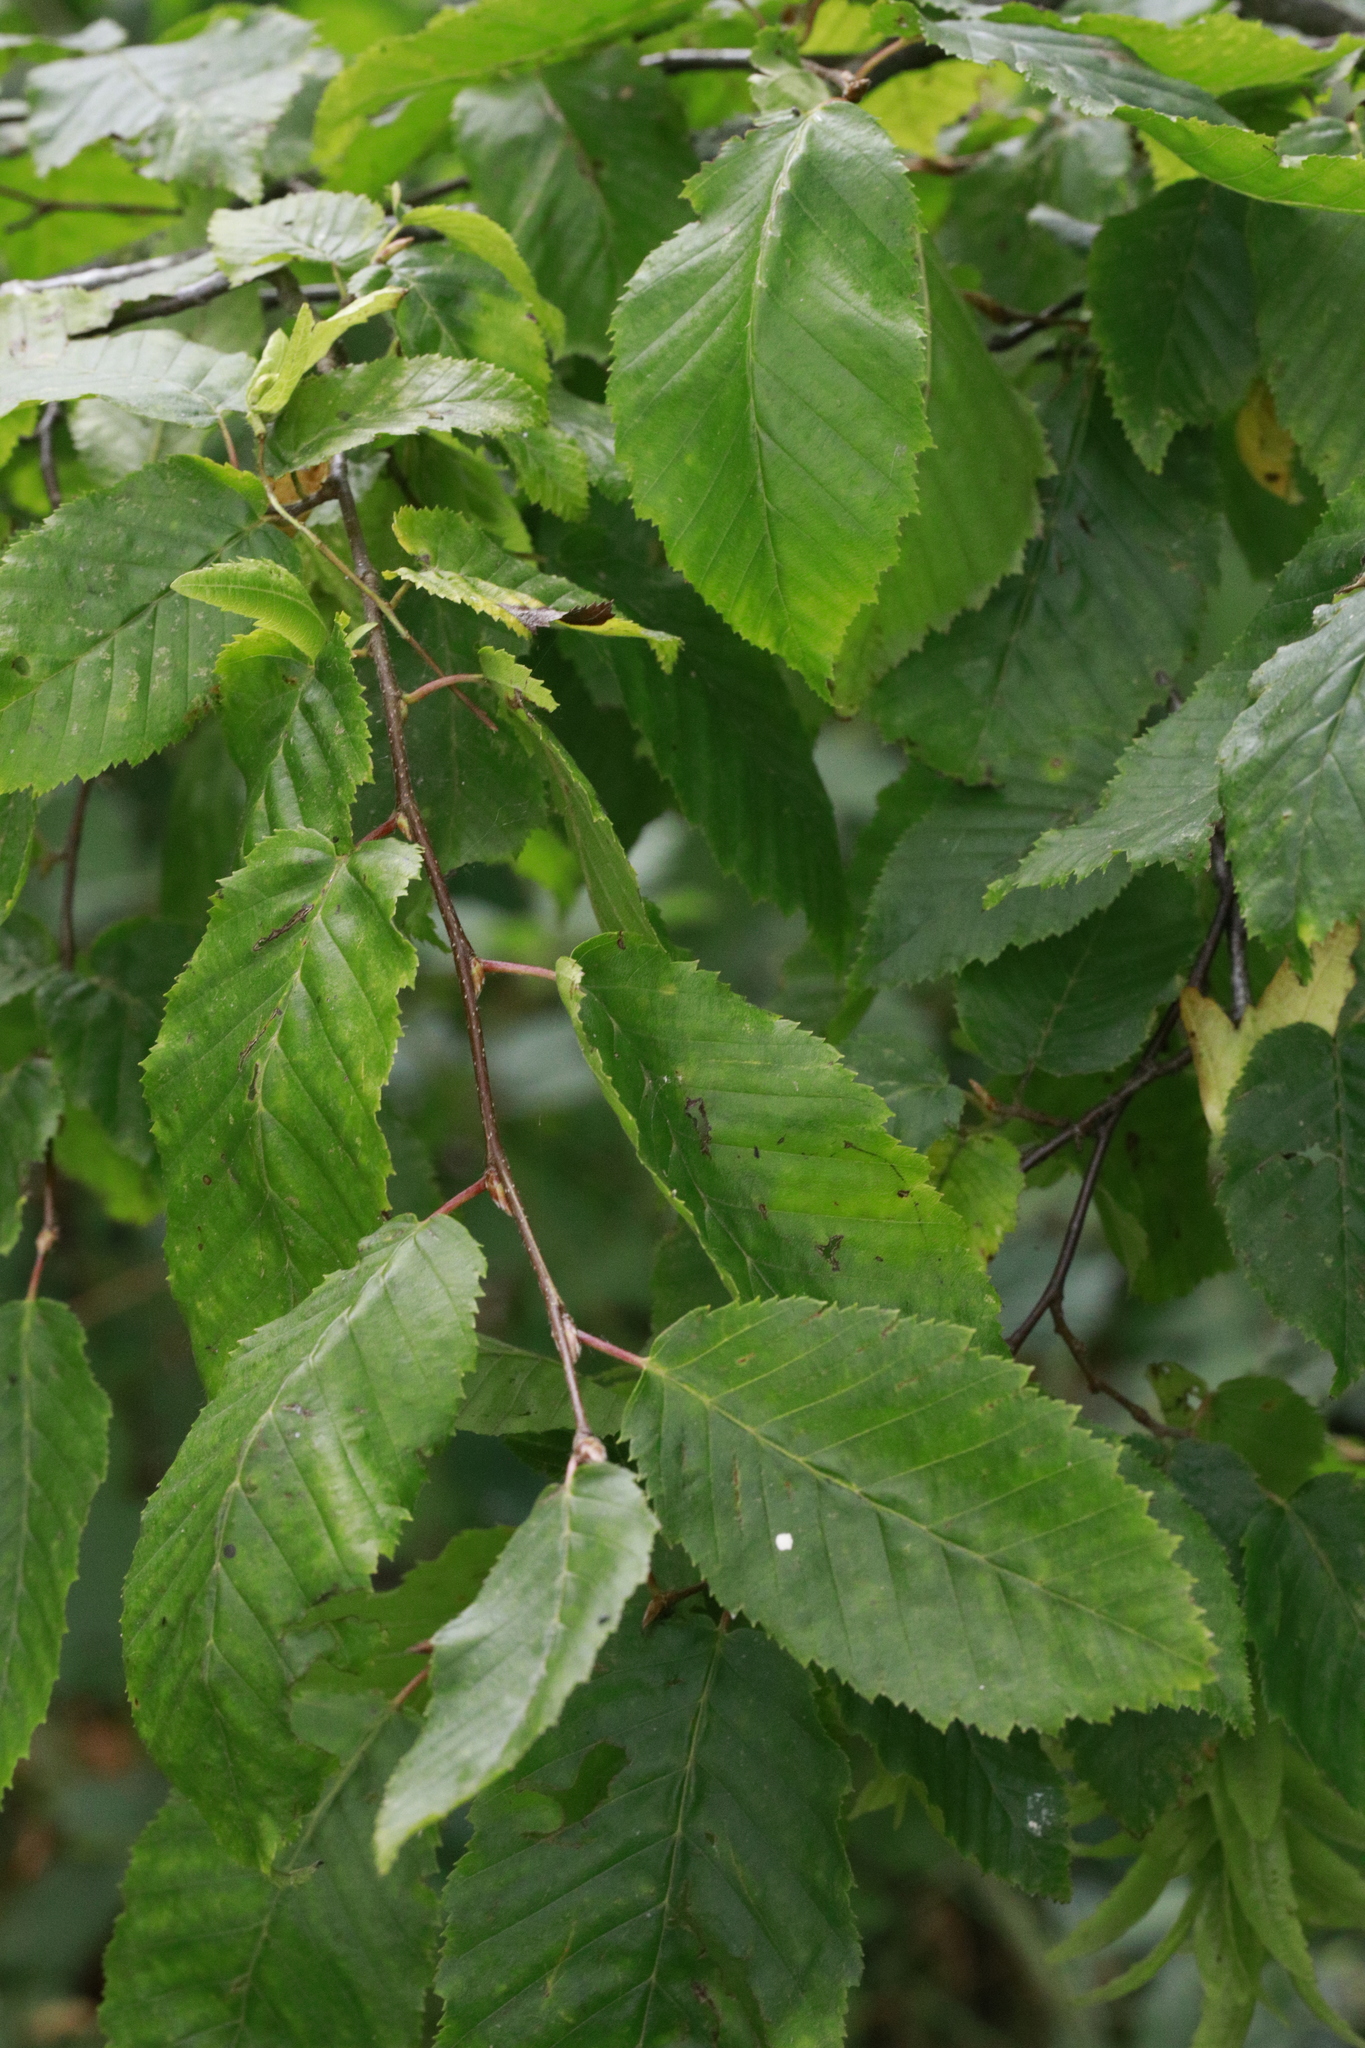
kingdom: Plantae
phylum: Tracheophyta
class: Magnoliopsida
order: Fagales
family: Betulaceae
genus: Carpinus
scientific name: Carpinus betulus
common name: Hornbeam
